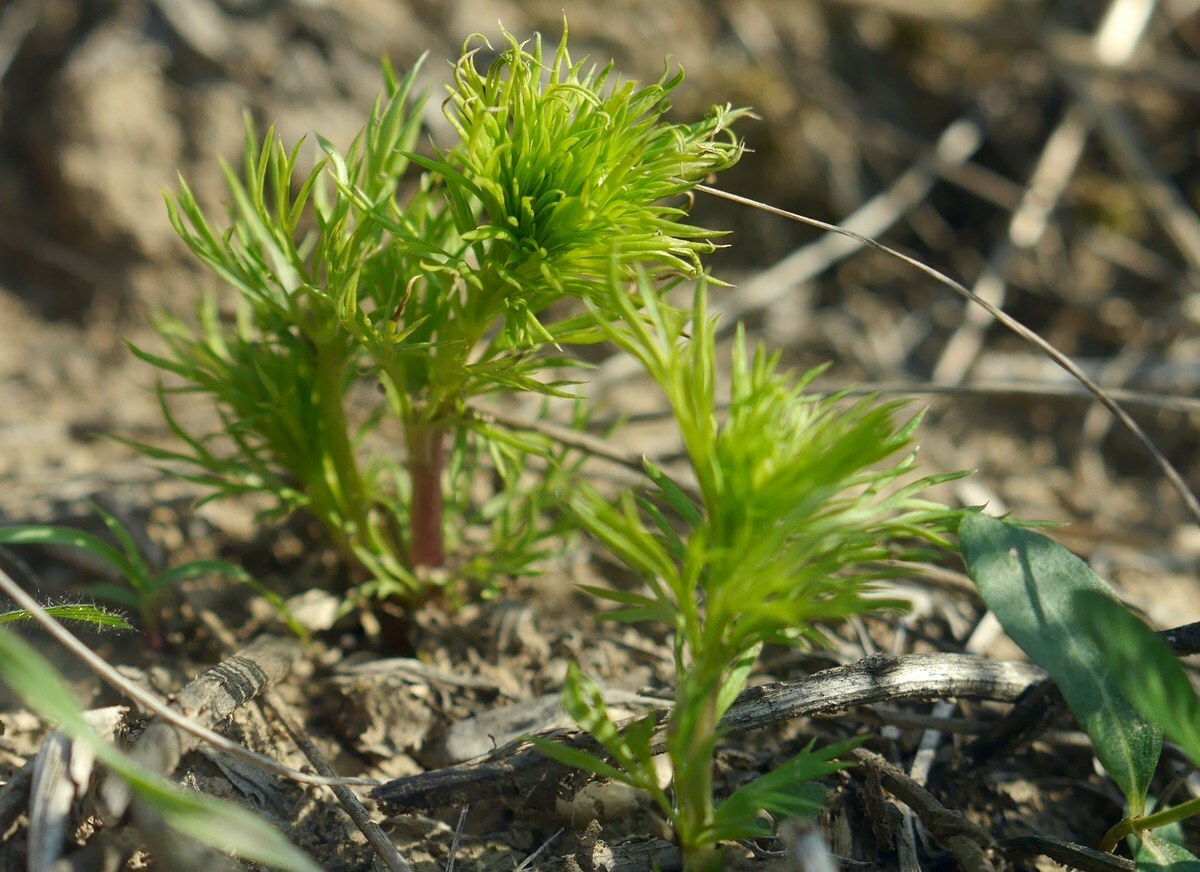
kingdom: Plantae
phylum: Tracheophyta
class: Magnoliopsida
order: Ranunculales
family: Ranunculaceae
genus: Adonis
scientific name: Adonis vernalis
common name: Yellow pheasants-eye
